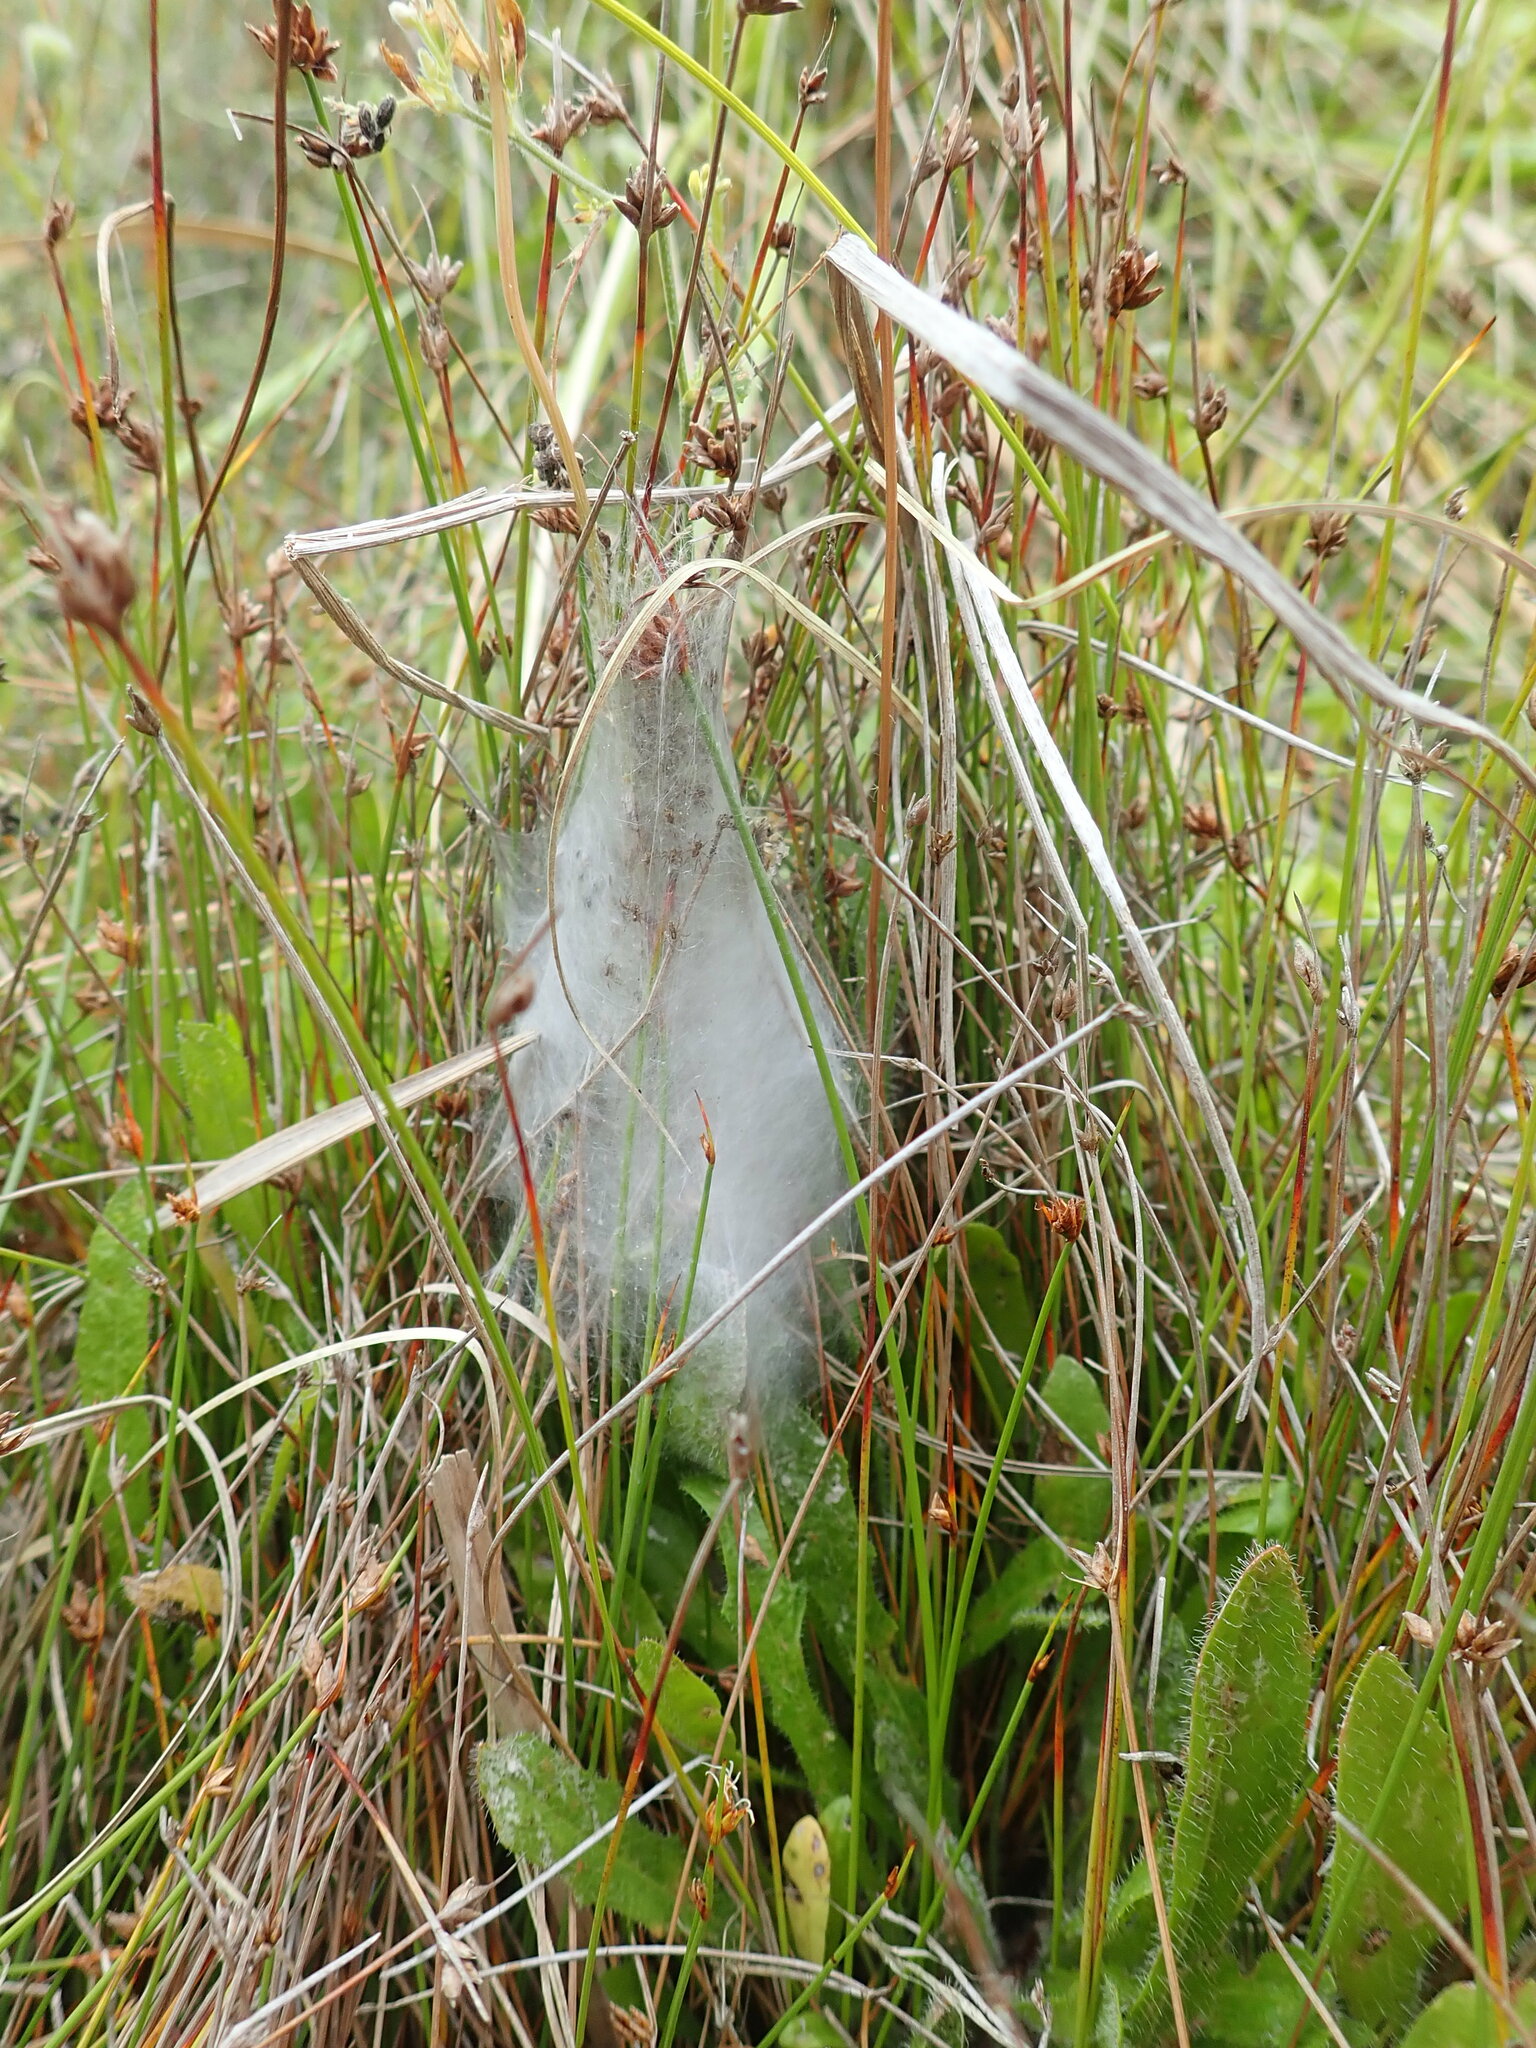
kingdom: Animalia
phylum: Arthropoda
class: Arachnida
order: Araneae
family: Pisauridae
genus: Dolomedes
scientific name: Dolomedes minor
